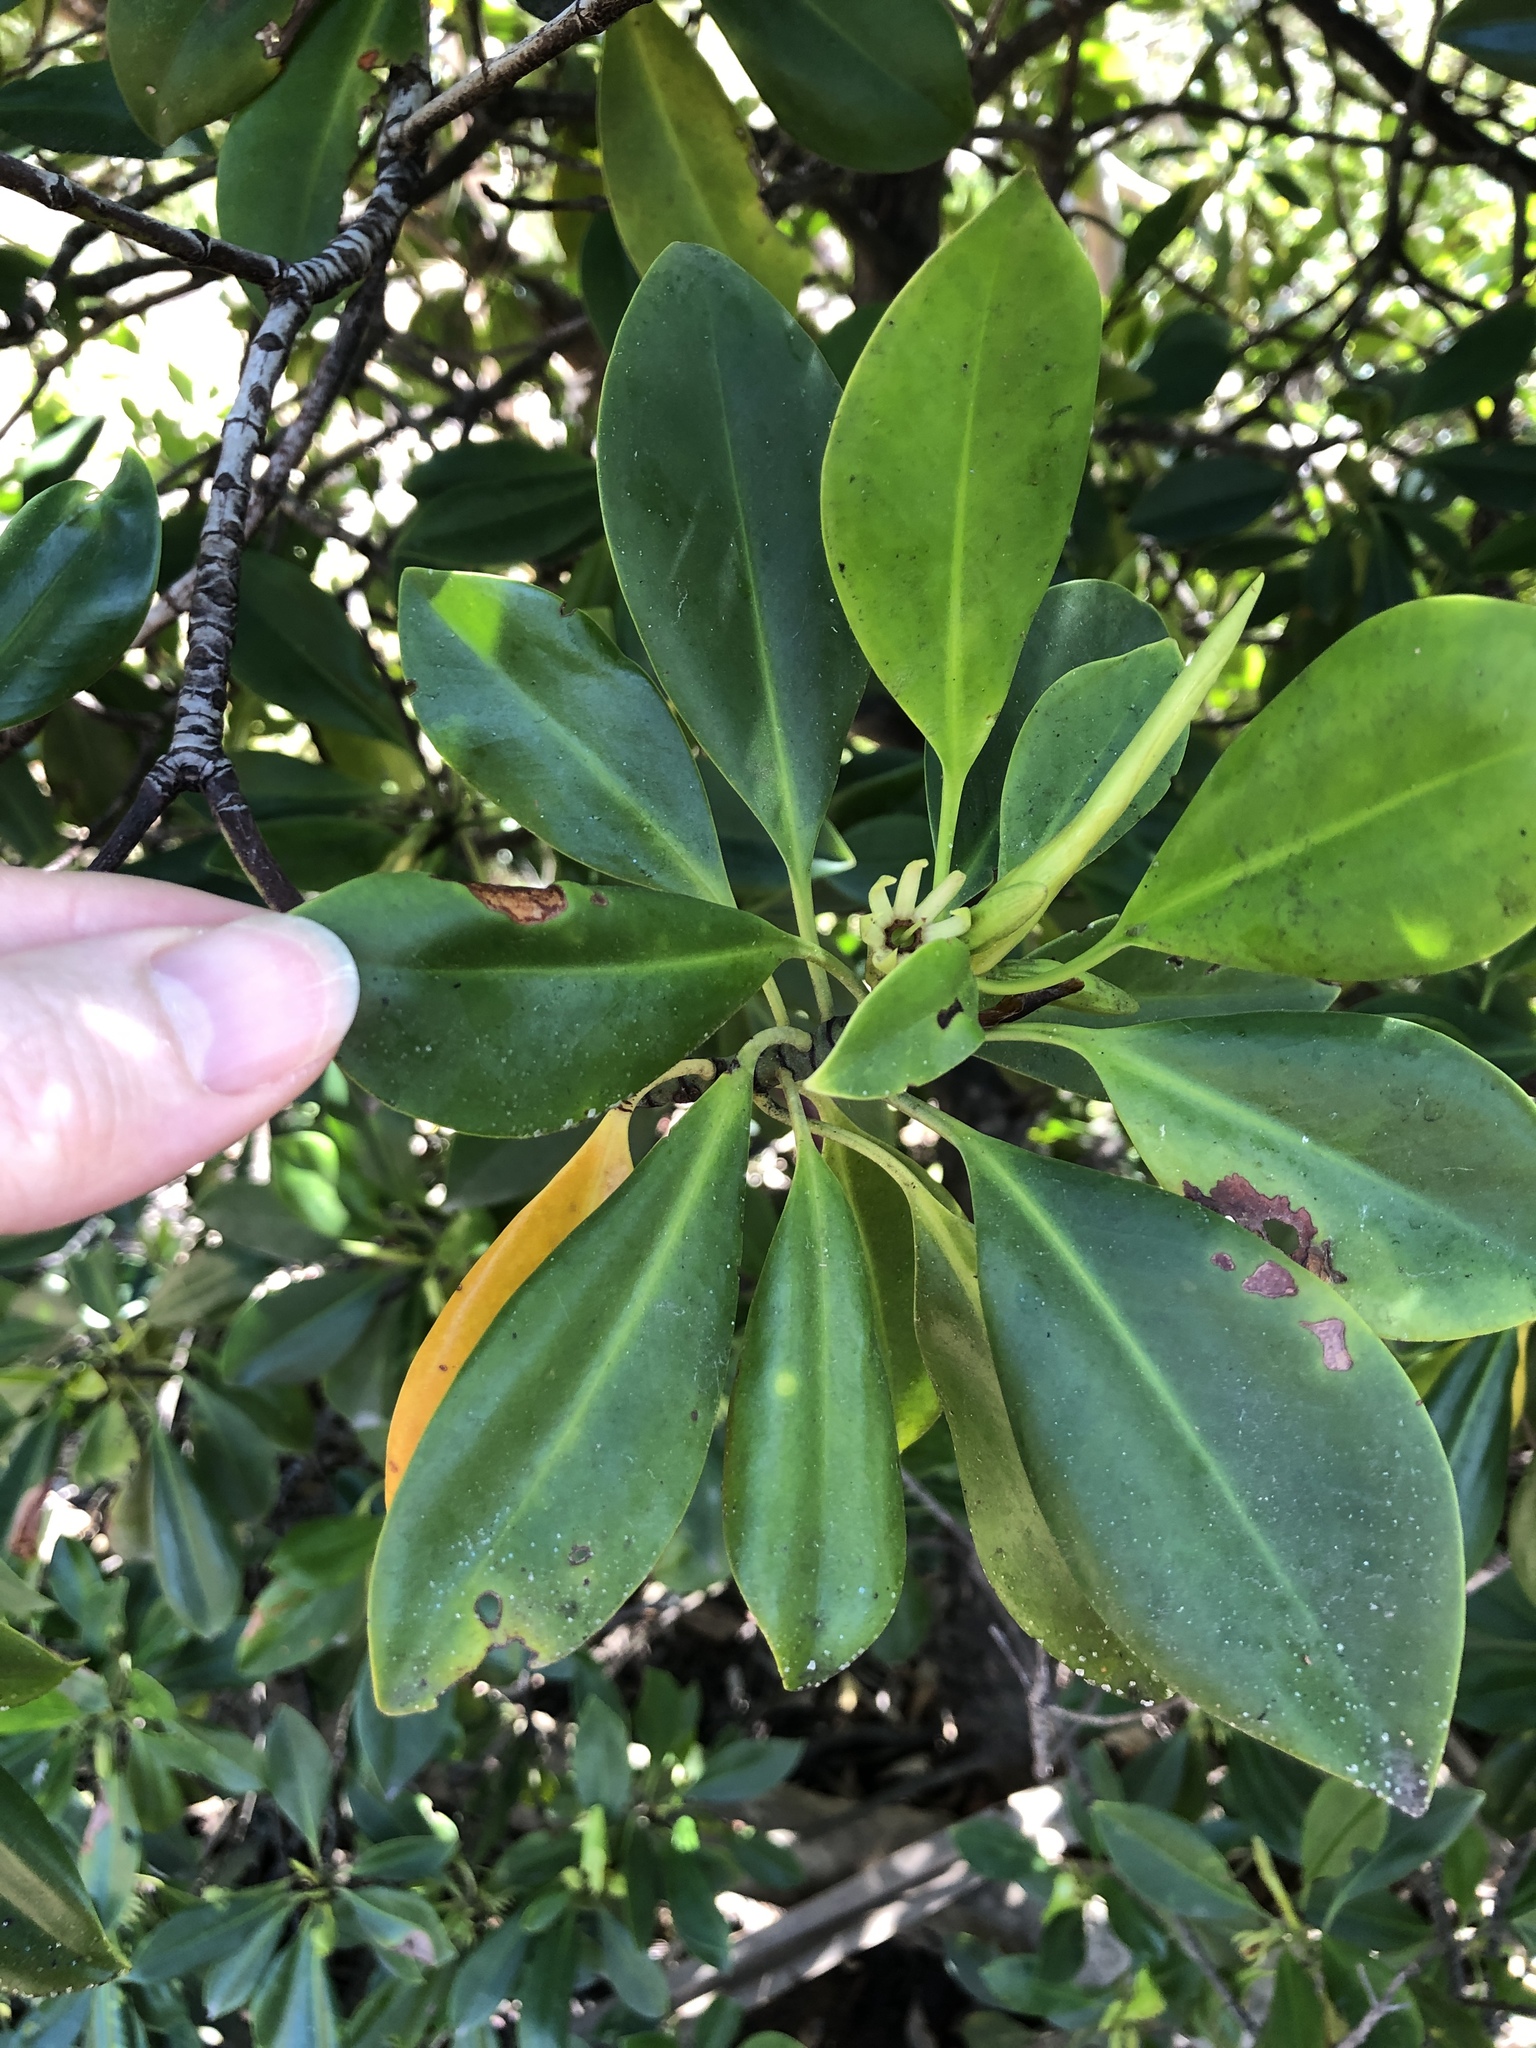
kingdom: Plantae
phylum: Tracheophyta
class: Magnoliopsida
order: Malpighiales
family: Rhizophoraceae
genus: Bruguiera
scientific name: Bruguiera exaristata
